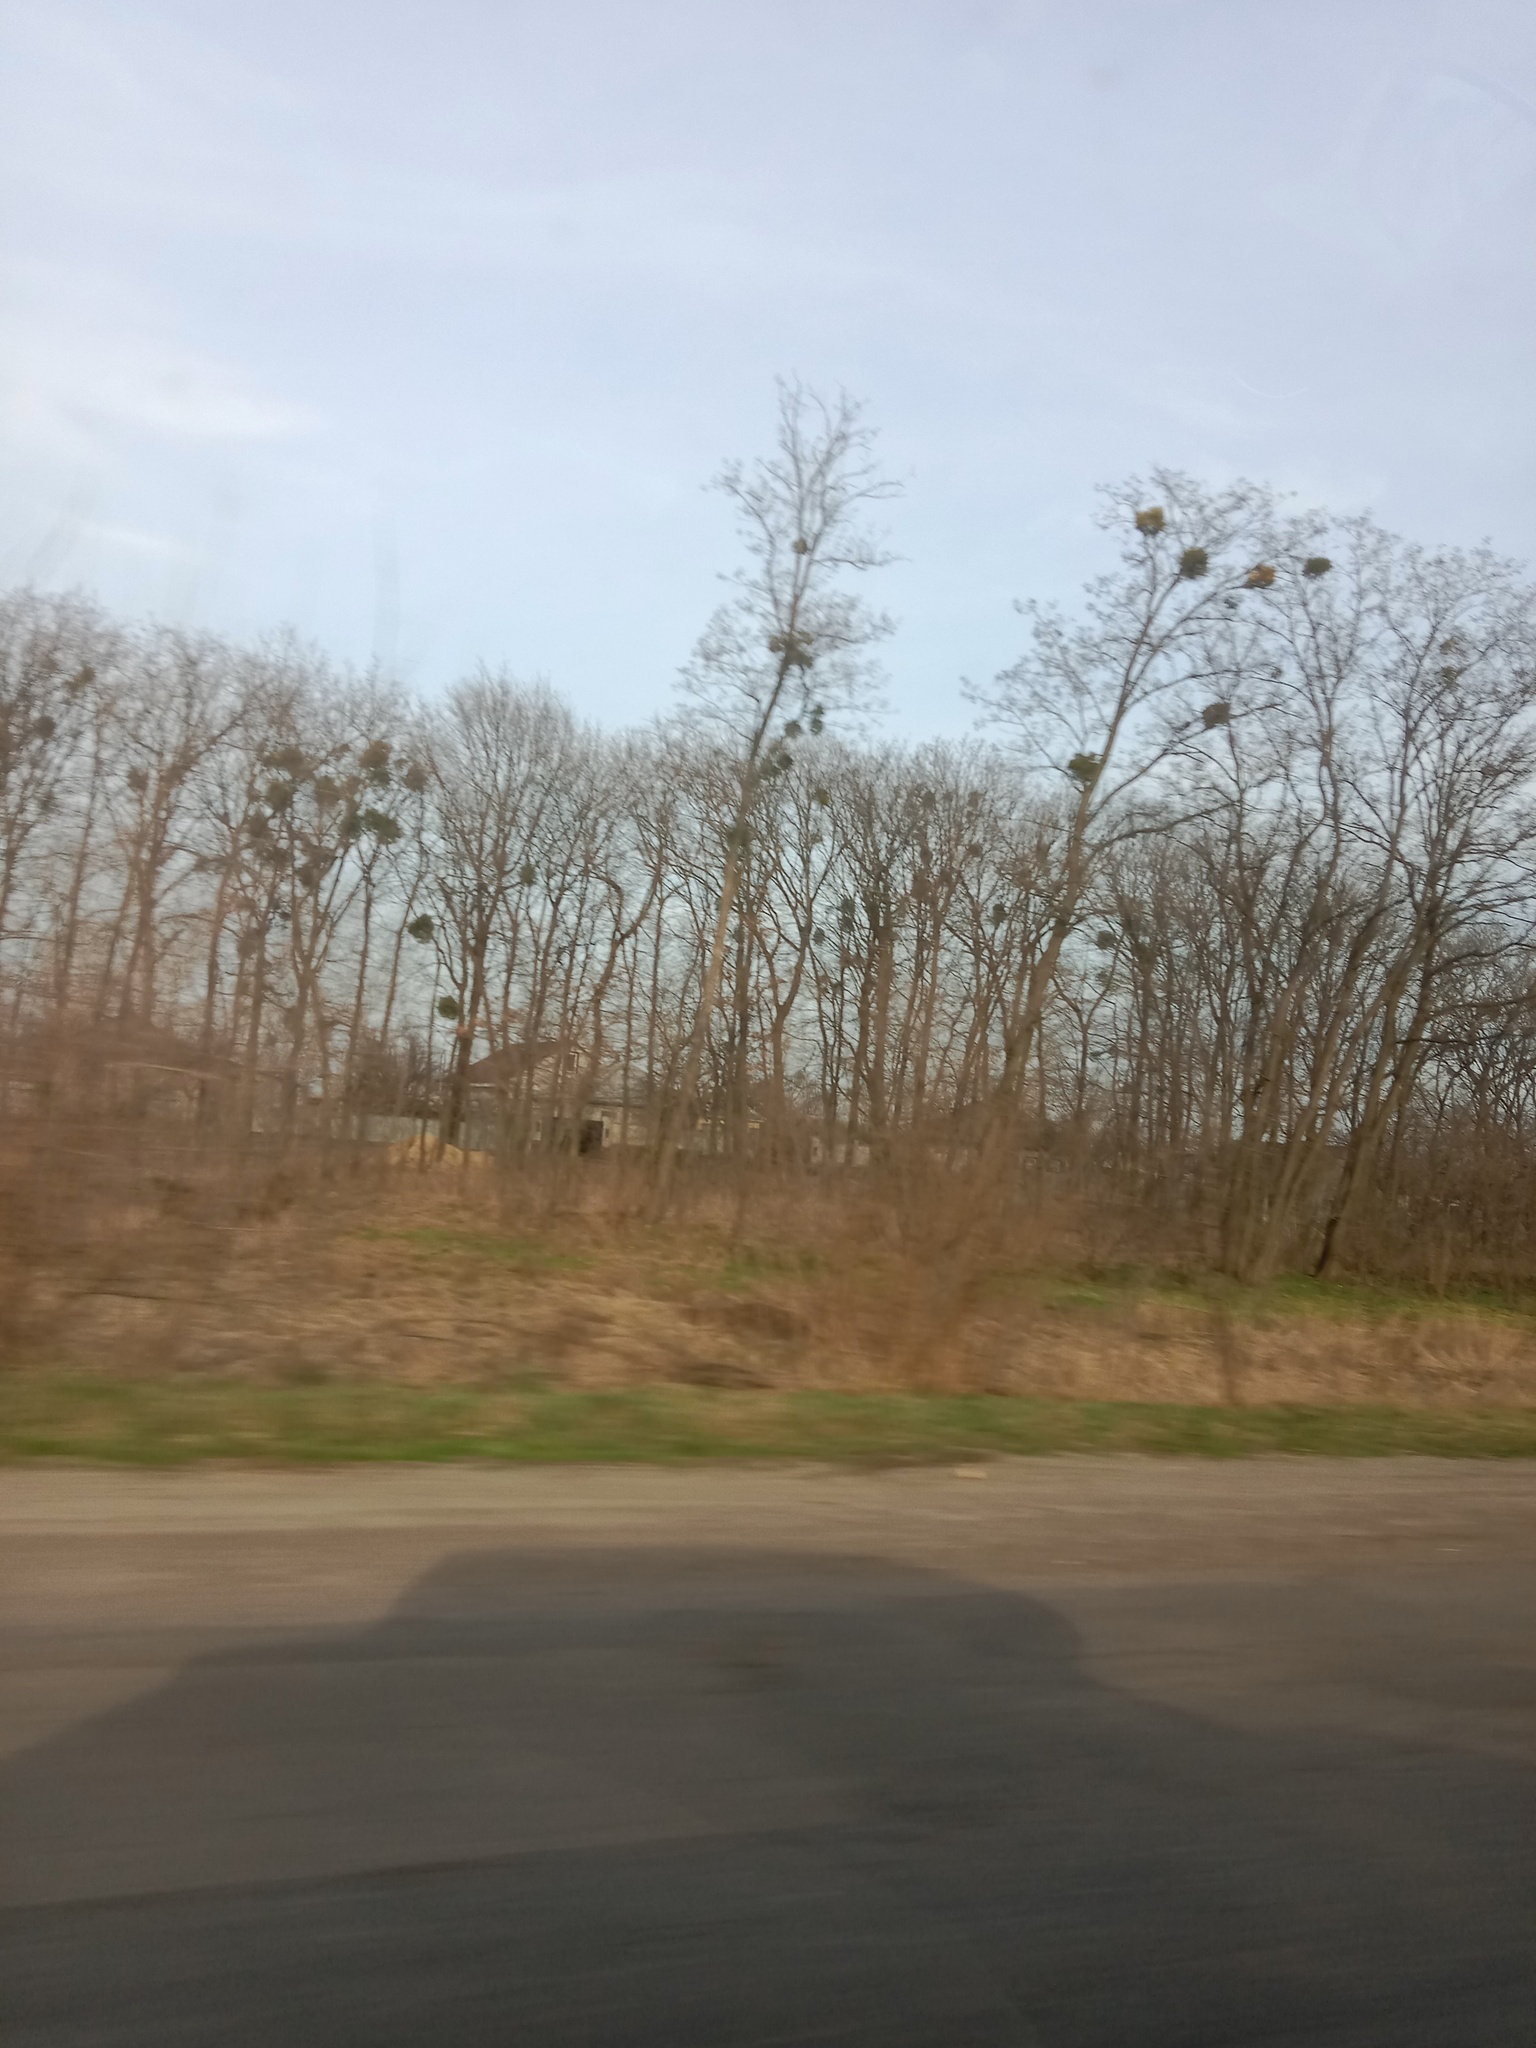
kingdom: Plantae
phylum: Tracheophyta
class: Magnoliopsida
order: Santalales
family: Viscaceae
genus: Viscum
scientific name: Viscum album
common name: Mistletoe
